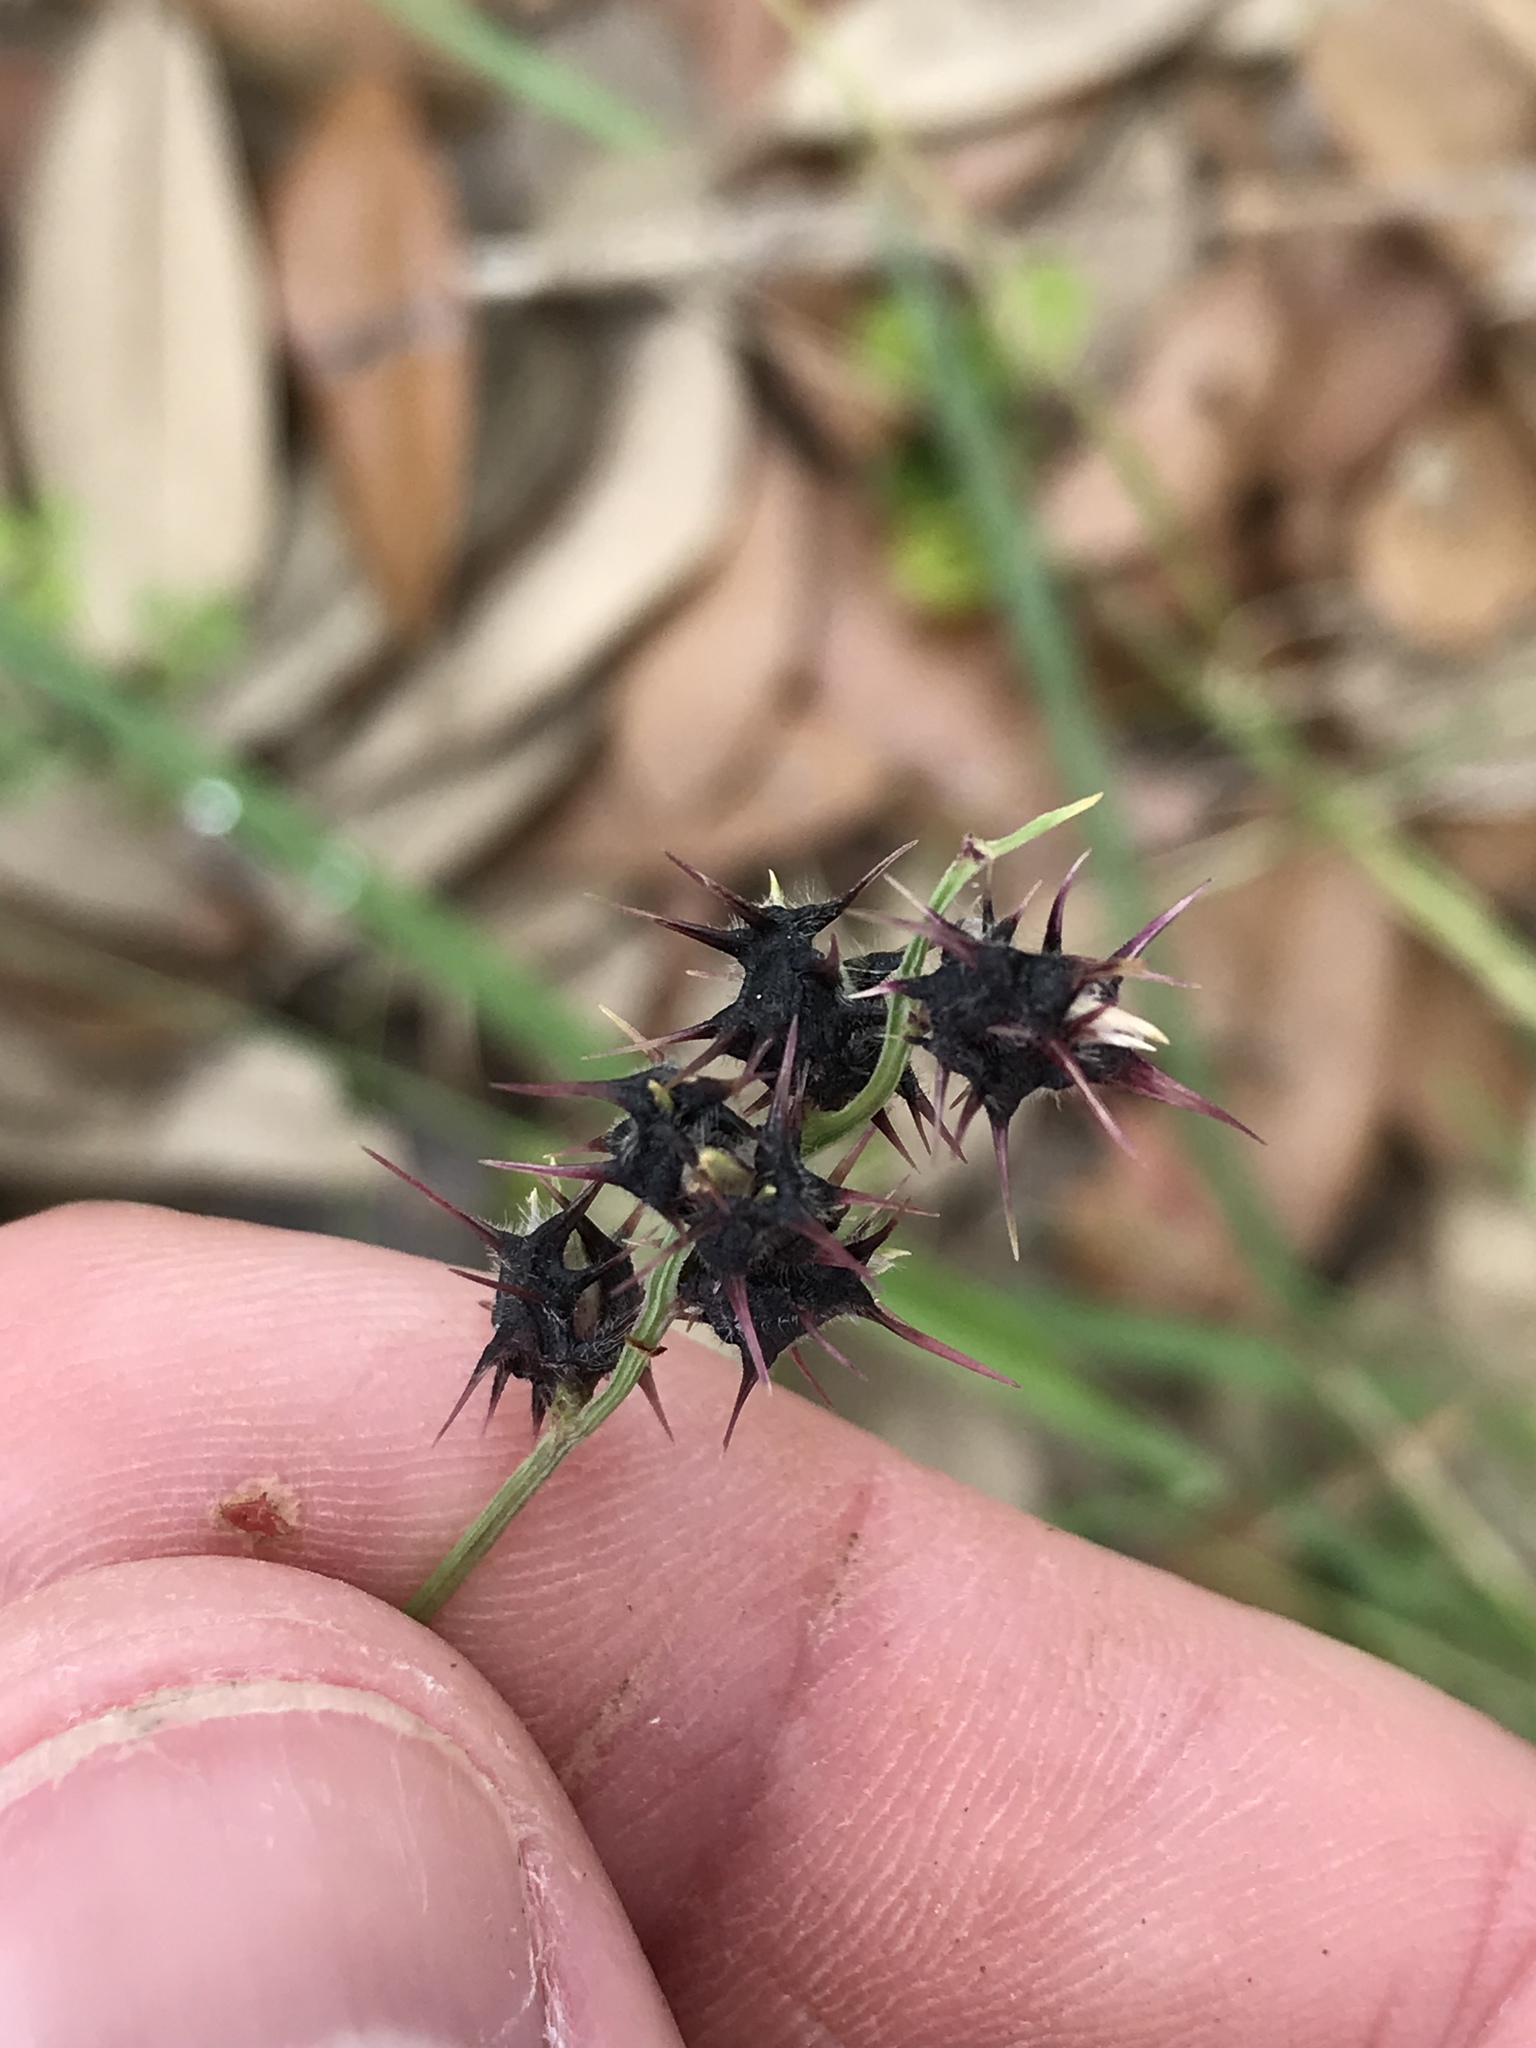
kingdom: Plantae
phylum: Tracheophyta
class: Liliopsida
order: Poales
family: Poaceae
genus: Cenchrus
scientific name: Cenchrus spinifex
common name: Coast sandbur
